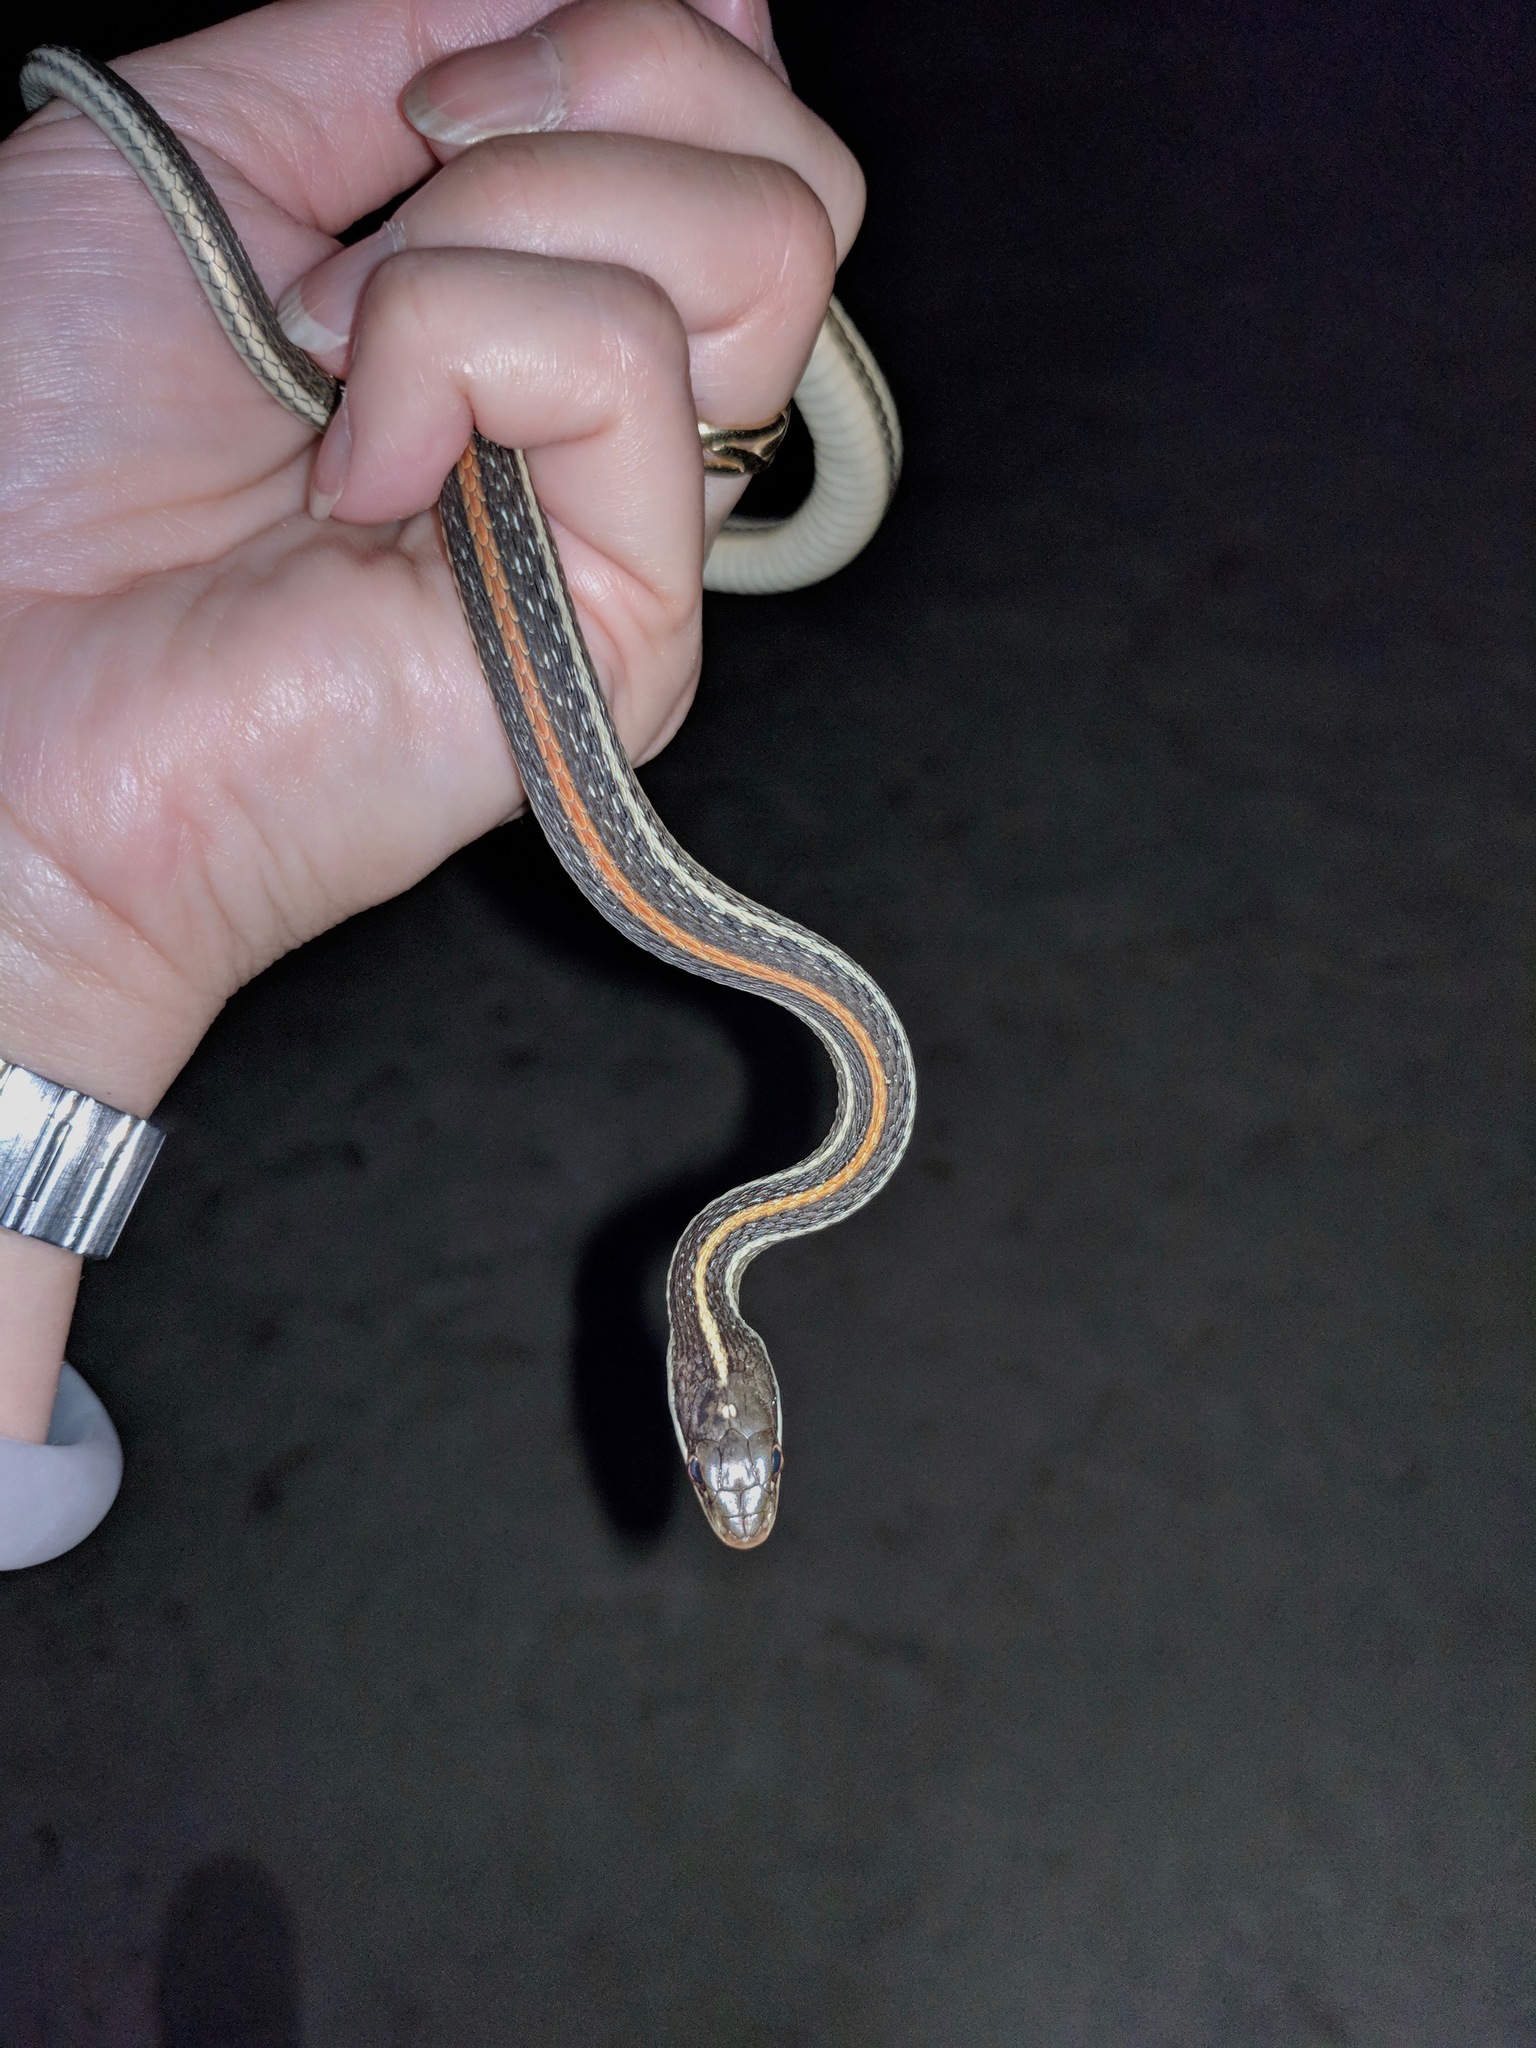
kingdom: Animalia
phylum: Chordata
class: Squamata
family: Colubridae
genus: Thamnophis
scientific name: Thamnophis proximus
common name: Western ribbon snake
